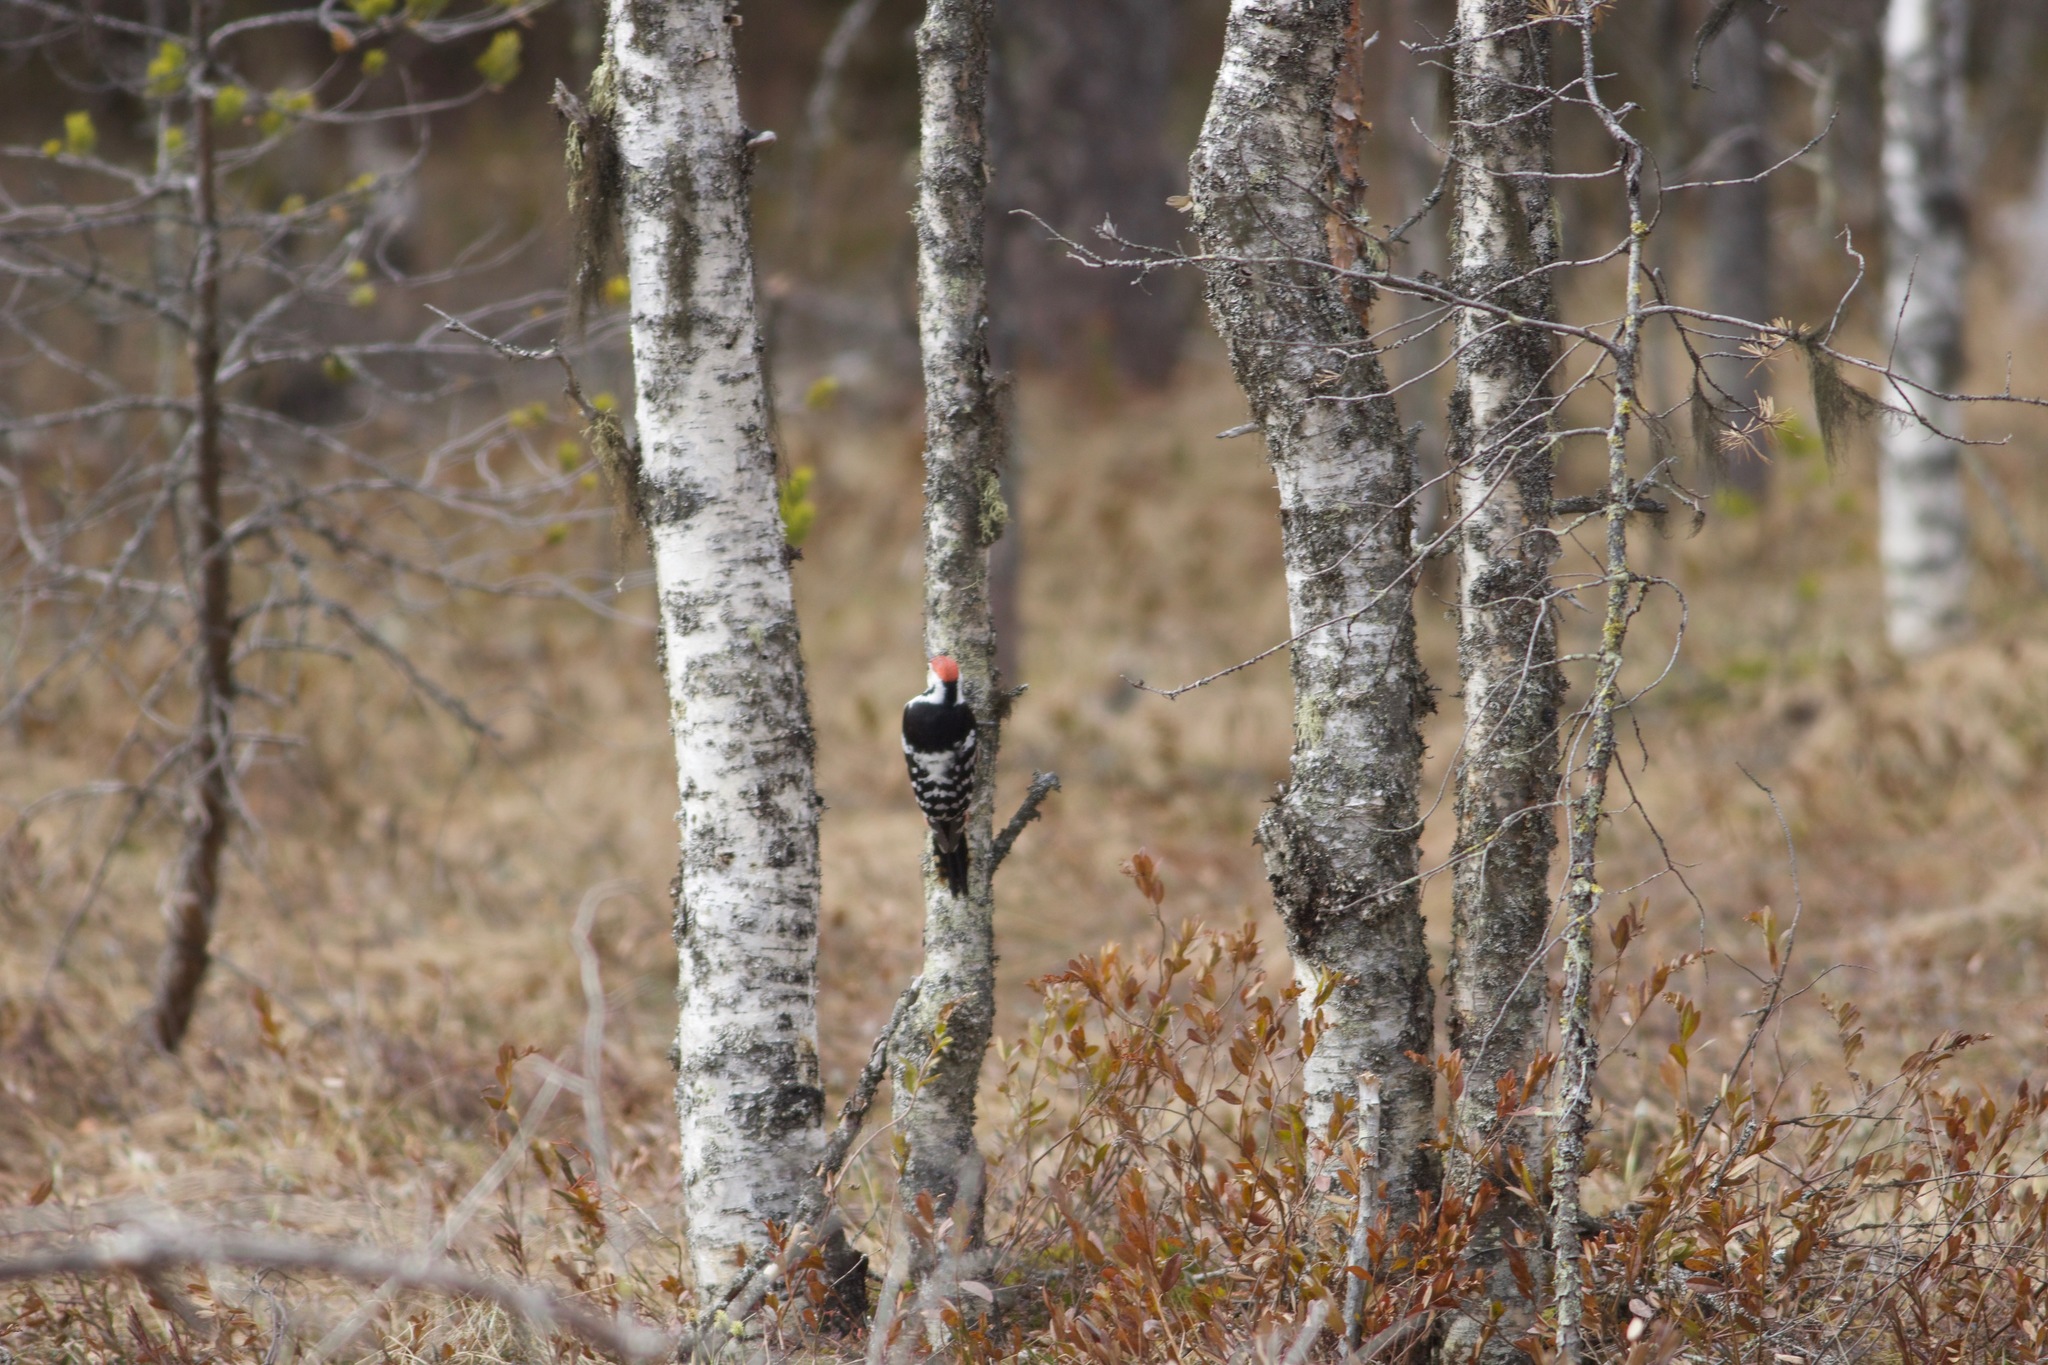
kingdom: Animalia
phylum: Chordata
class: Aves
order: Piciformes
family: Picidae
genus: Dendrocopos
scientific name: Dendrocopos leucotos
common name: White-backed woodpecker
